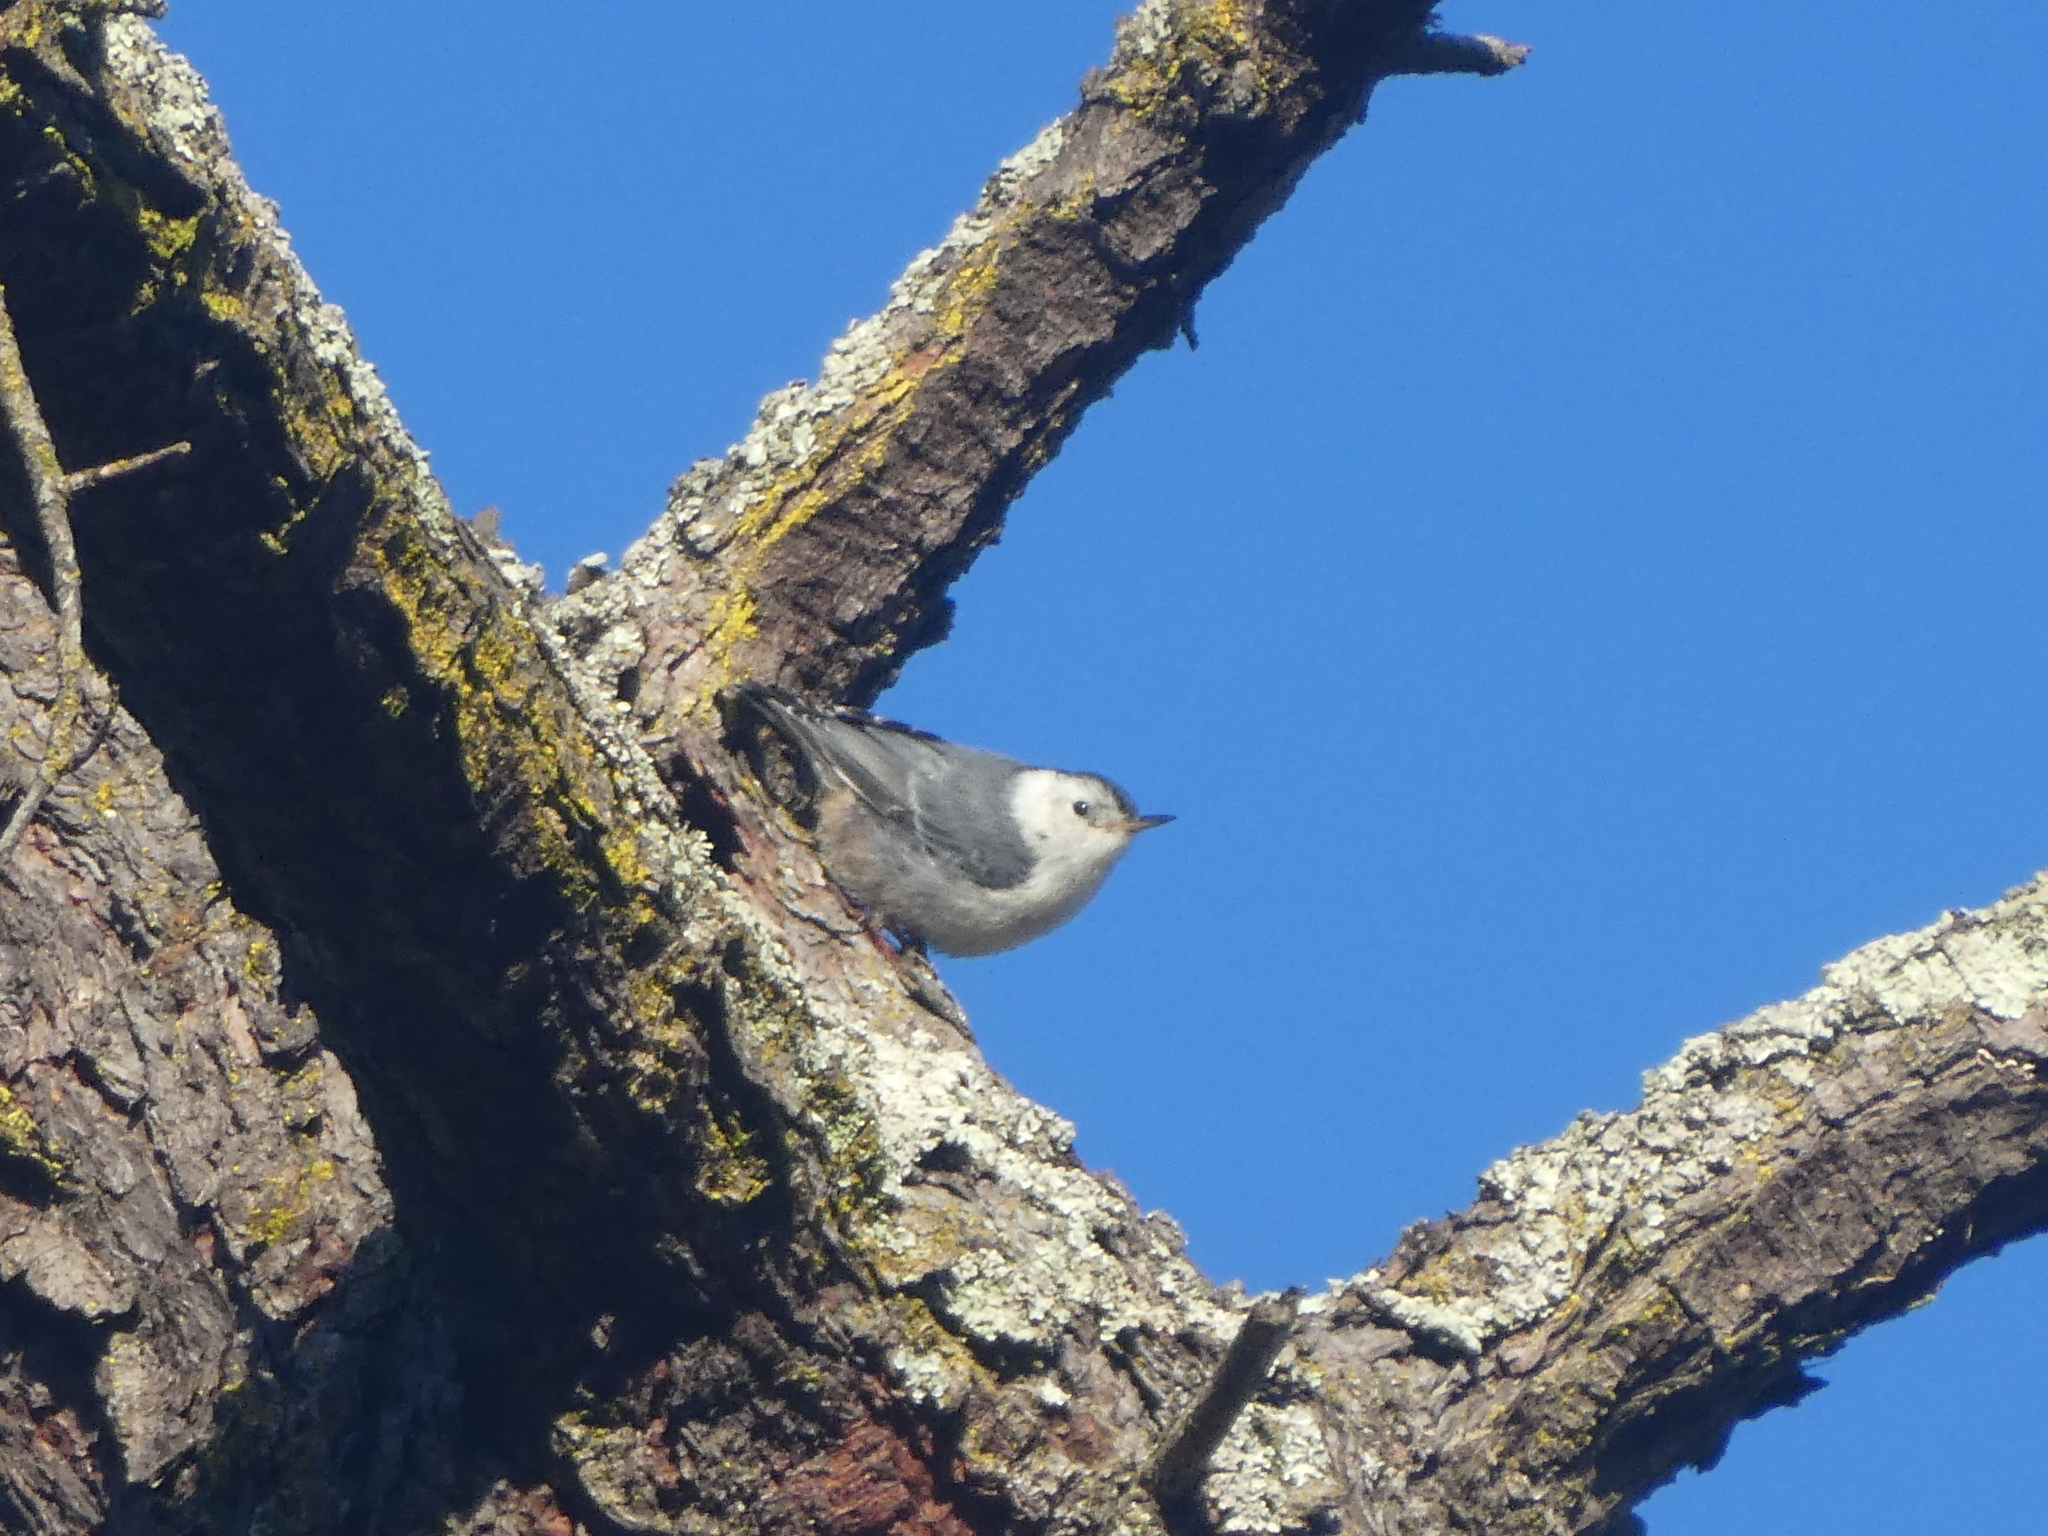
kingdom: Animalia
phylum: Chordata
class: Aves
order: Passeriformes
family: Sittidae
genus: Sitta
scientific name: Sitta carolinensis
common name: White-breasted nuthatch
